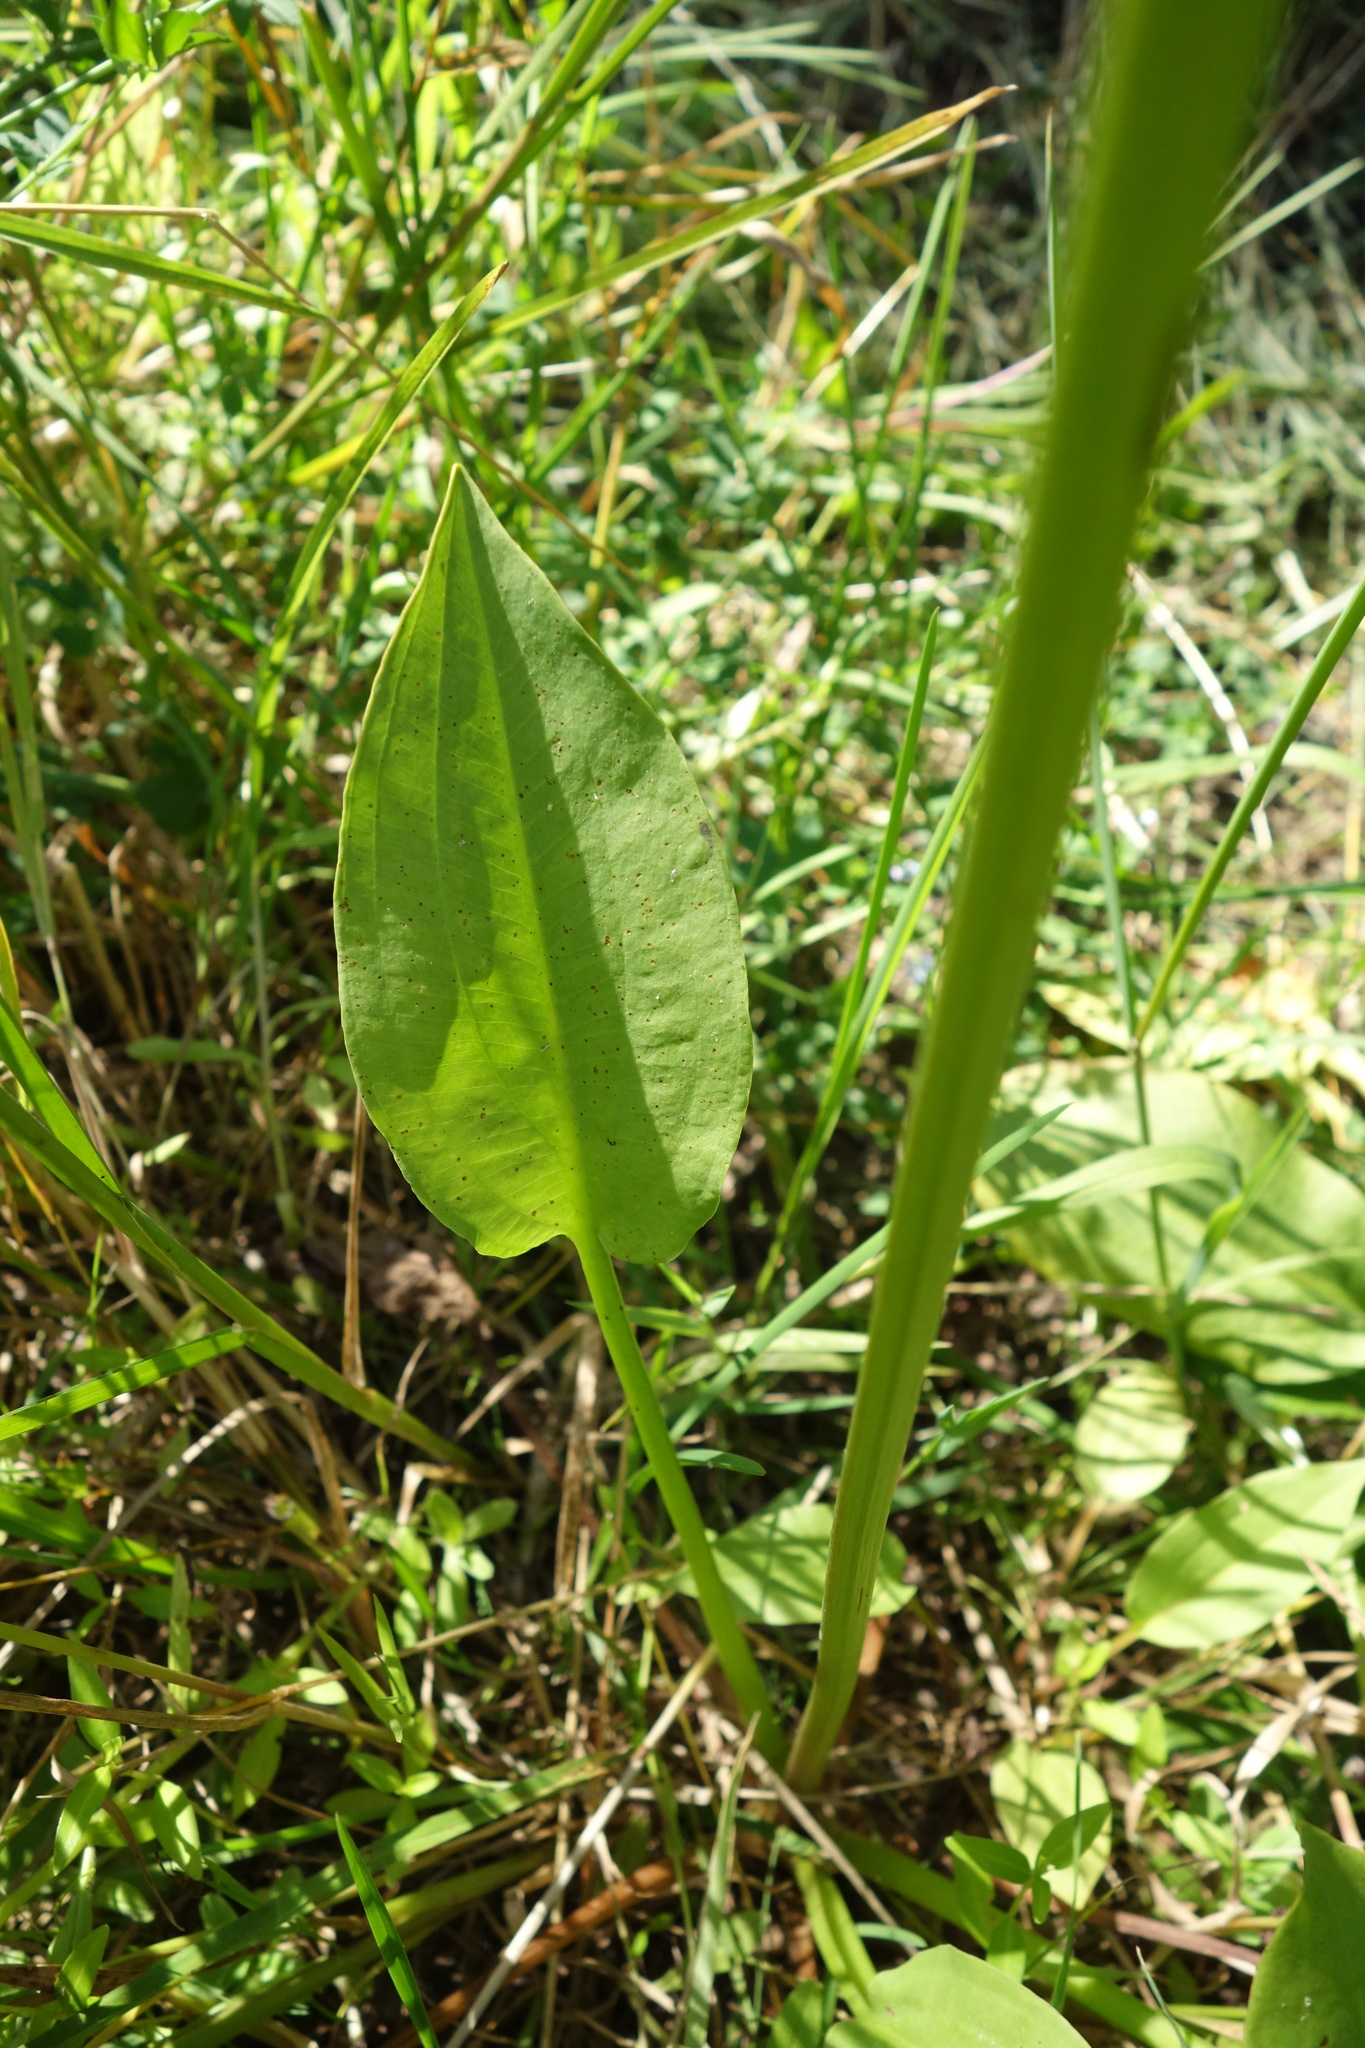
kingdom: Plantae
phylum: Tracheophyta
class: Liliopsida
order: Alismatales
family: Alismataceae
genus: Alisma
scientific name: Alisma plantago-aquatica
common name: Water-plantain
